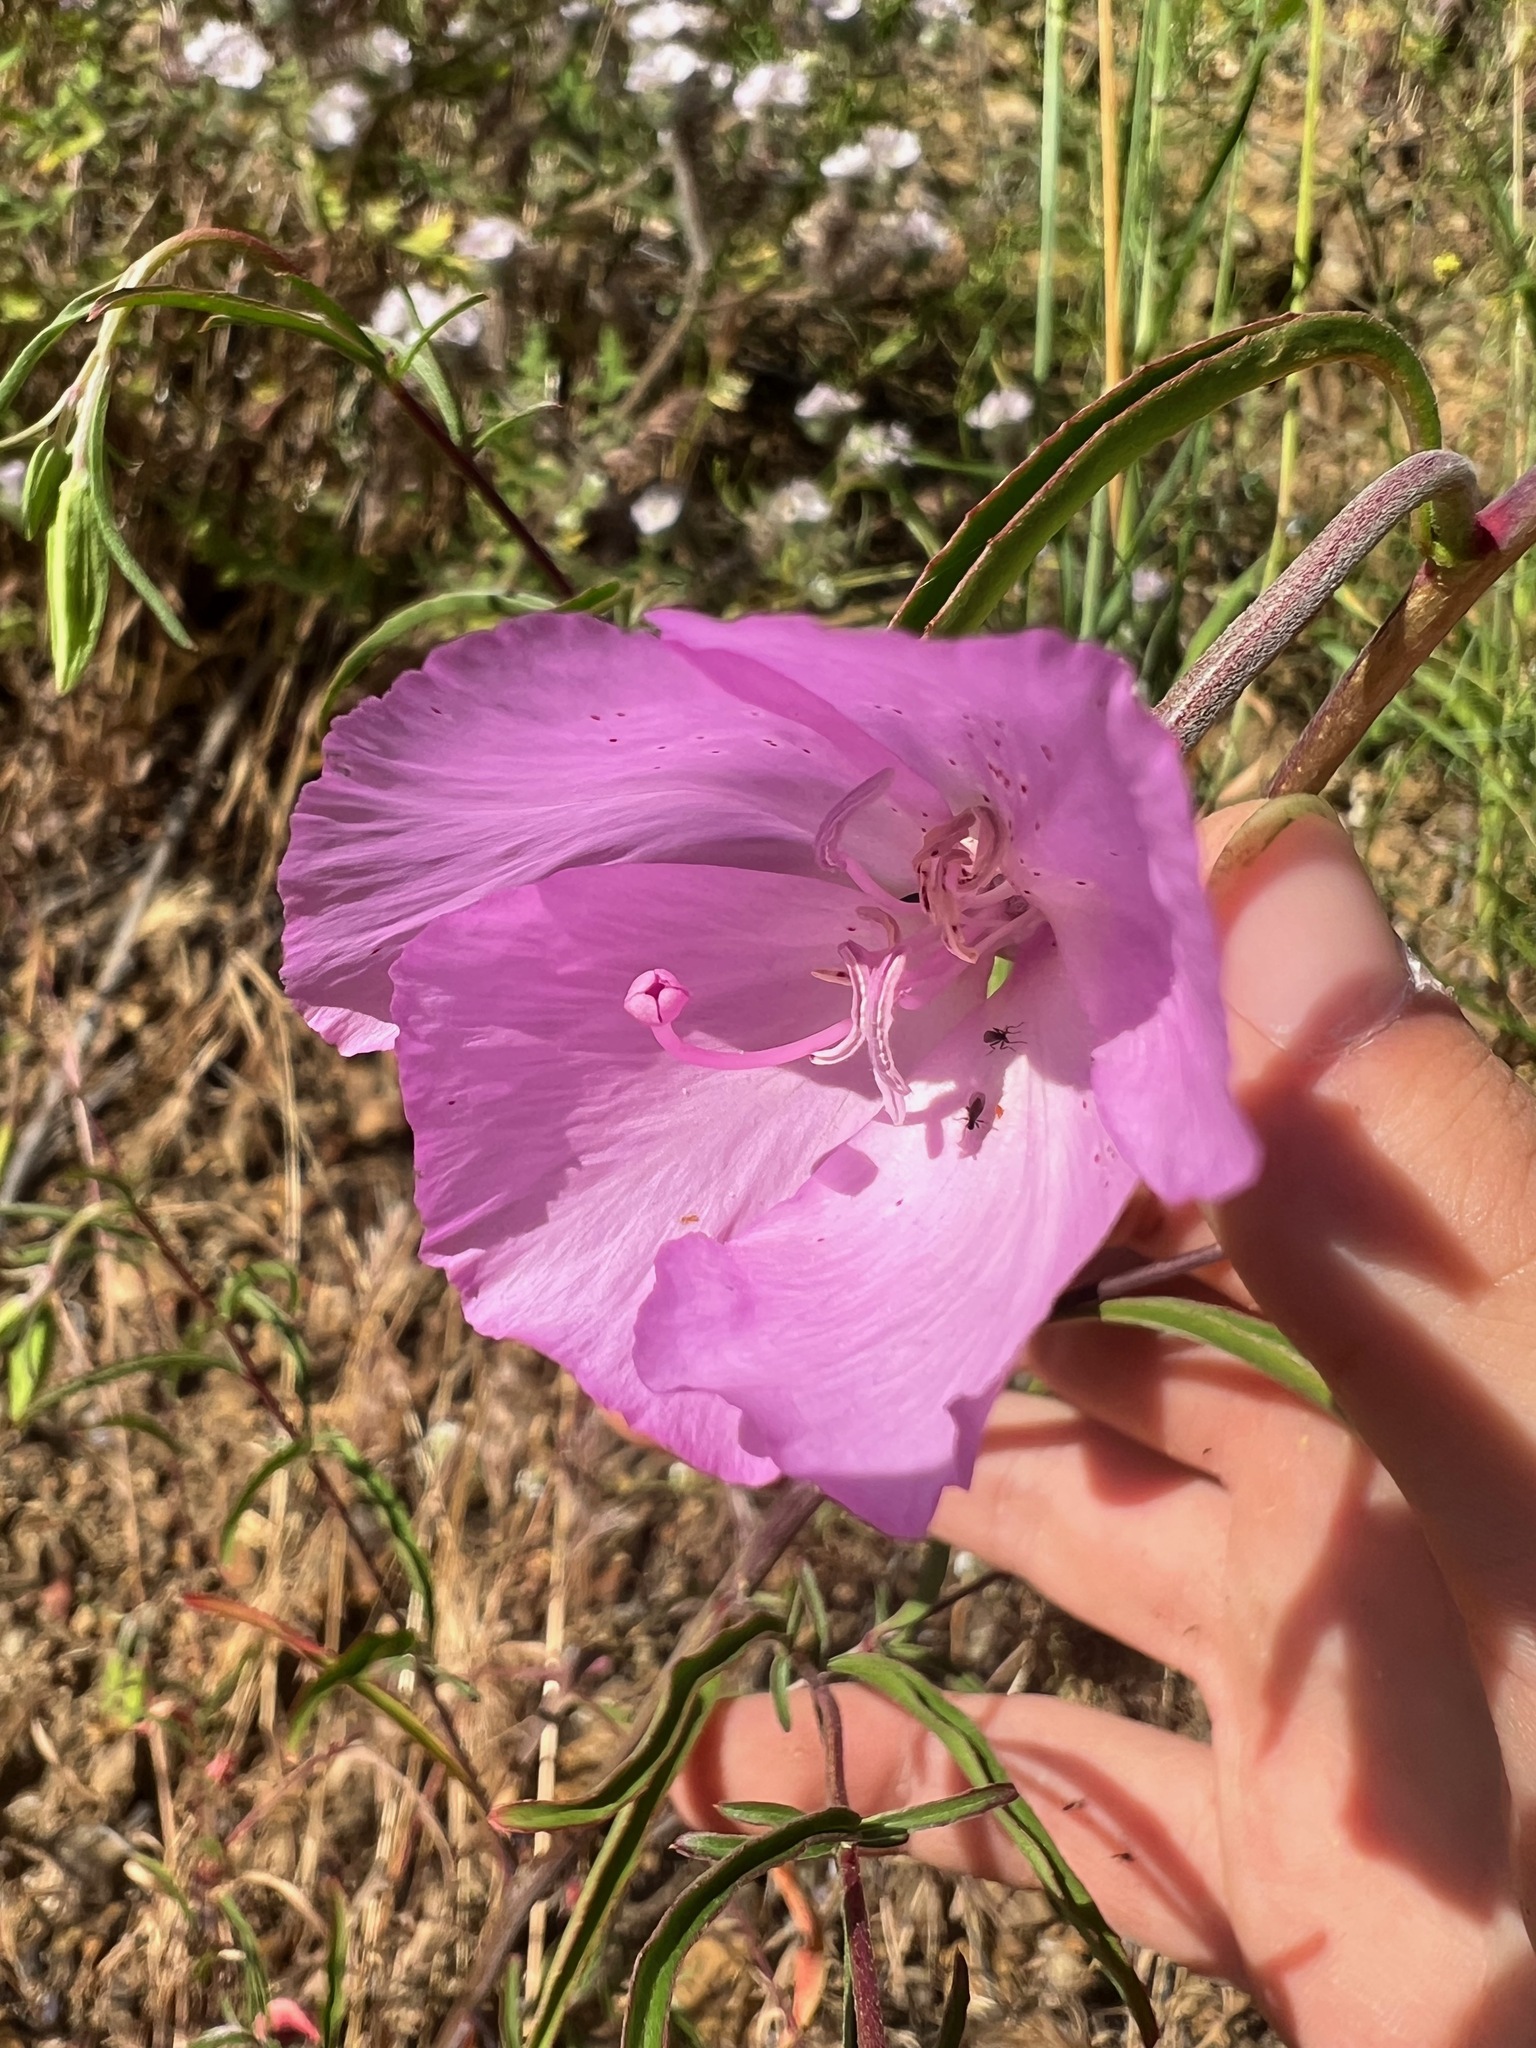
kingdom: Plantae
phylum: Tracheophyta
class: Magnoliopsida
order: Myrtales
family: Onagraceae
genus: Clarkia
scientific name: Clarkia bottae
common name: Punch-bowl godetia
